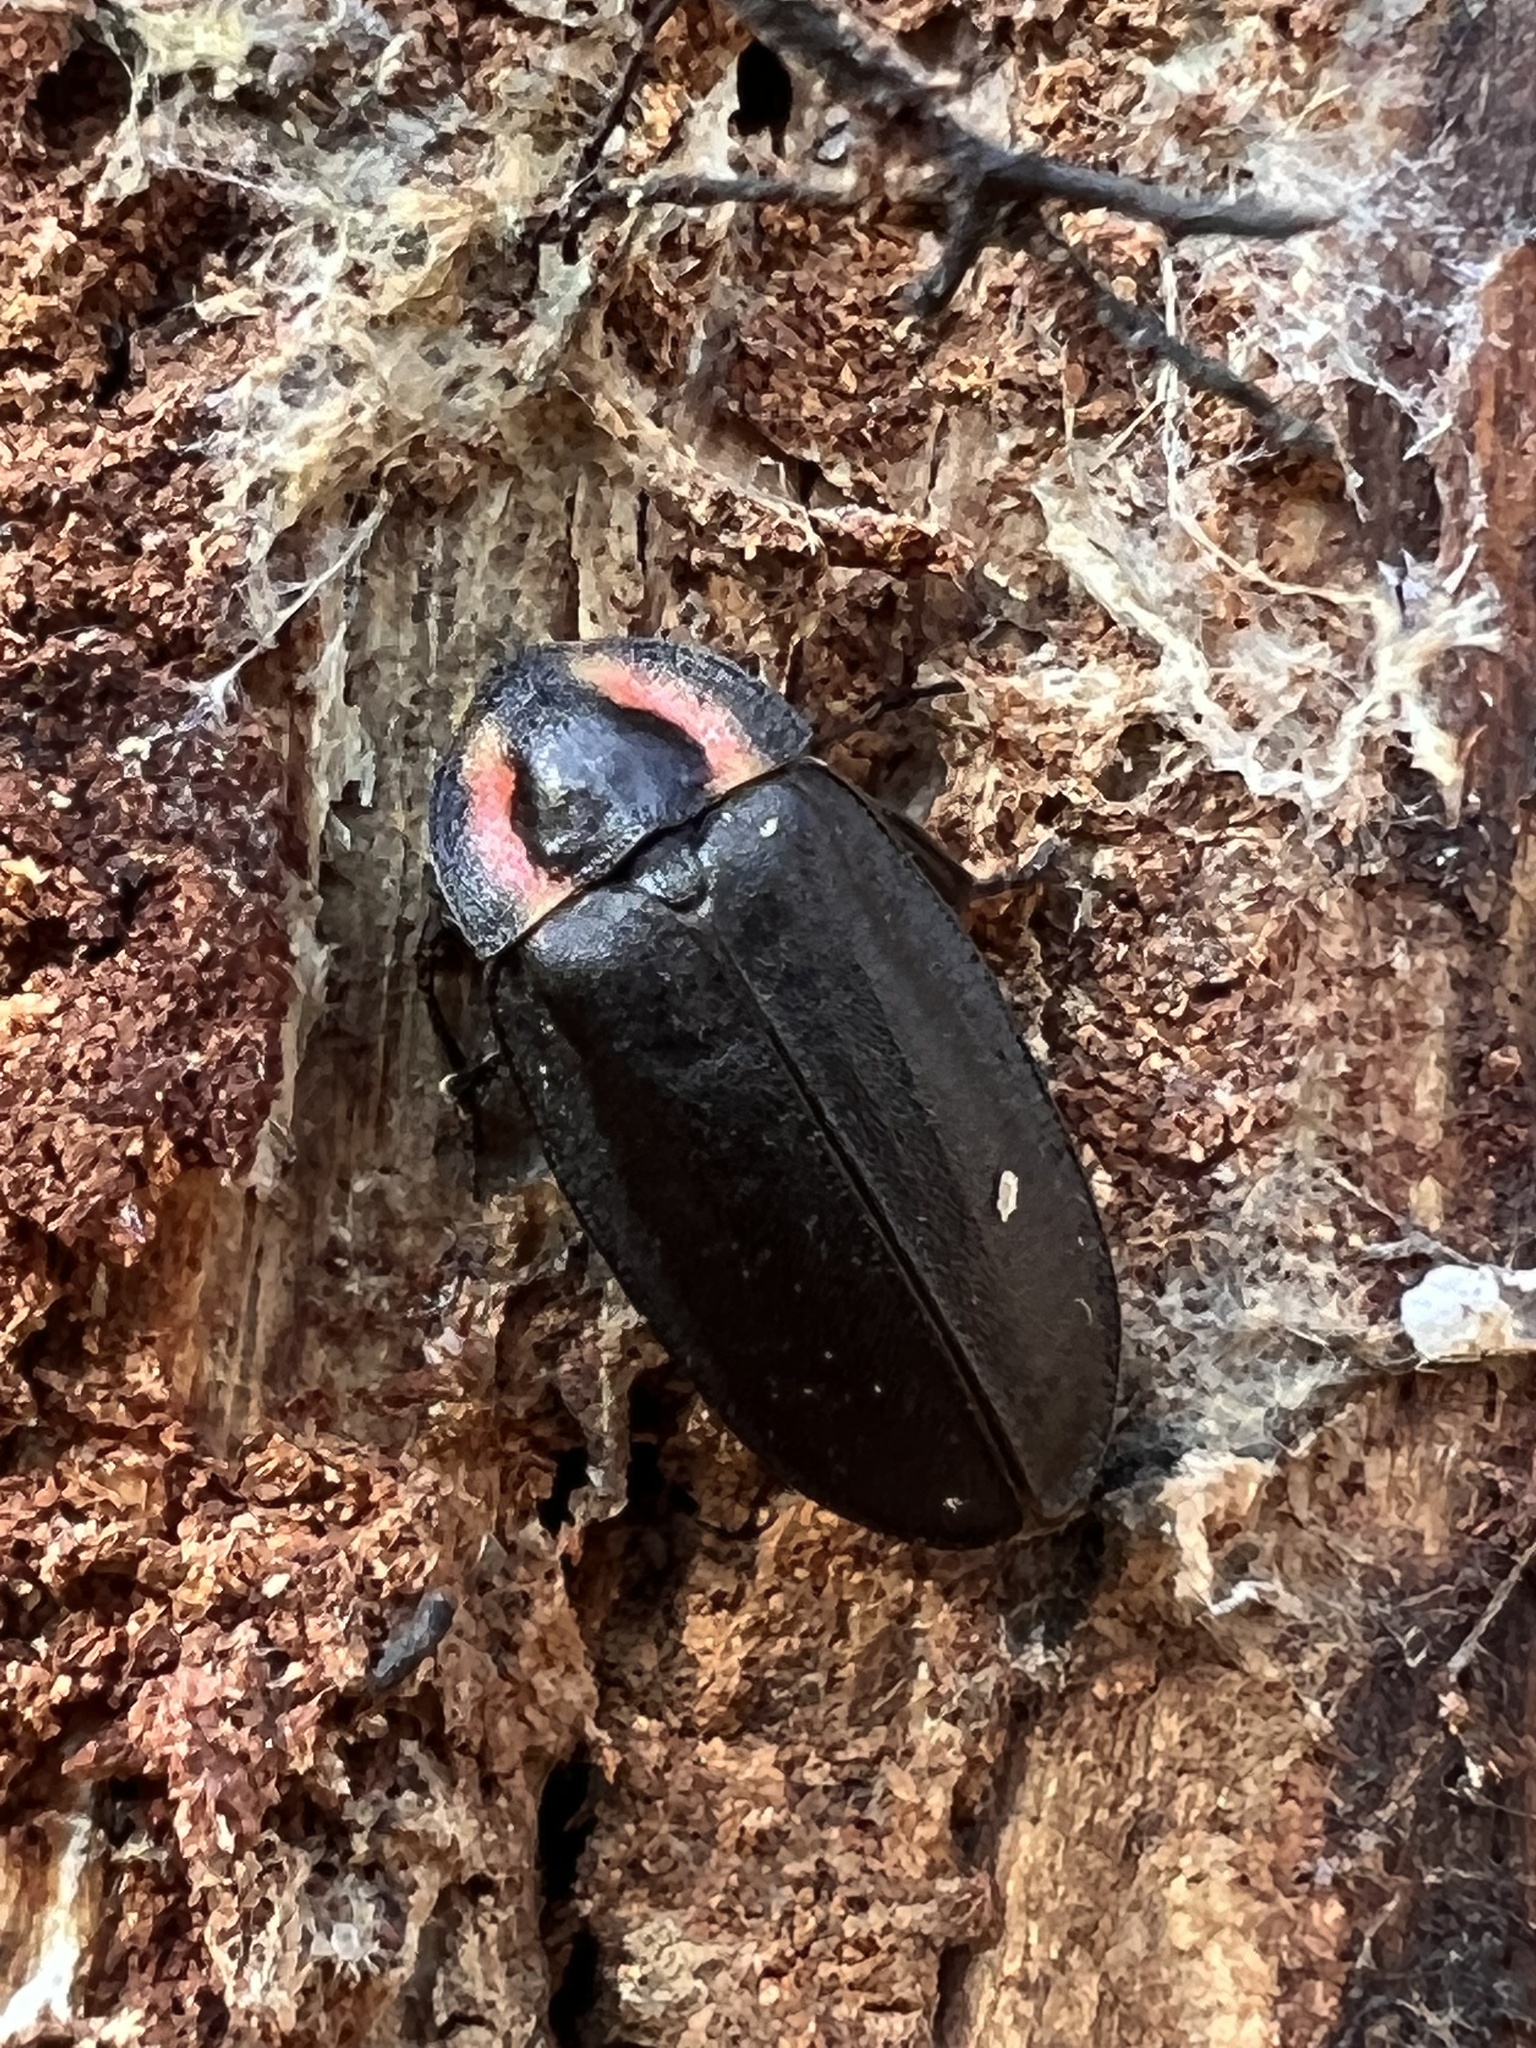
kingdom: Animalia
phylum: Arthropoda
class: Insecta
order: Coleoptera
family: Lampyridae
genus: Photinus
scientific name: Photinus corrusca
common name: Winter firefly
